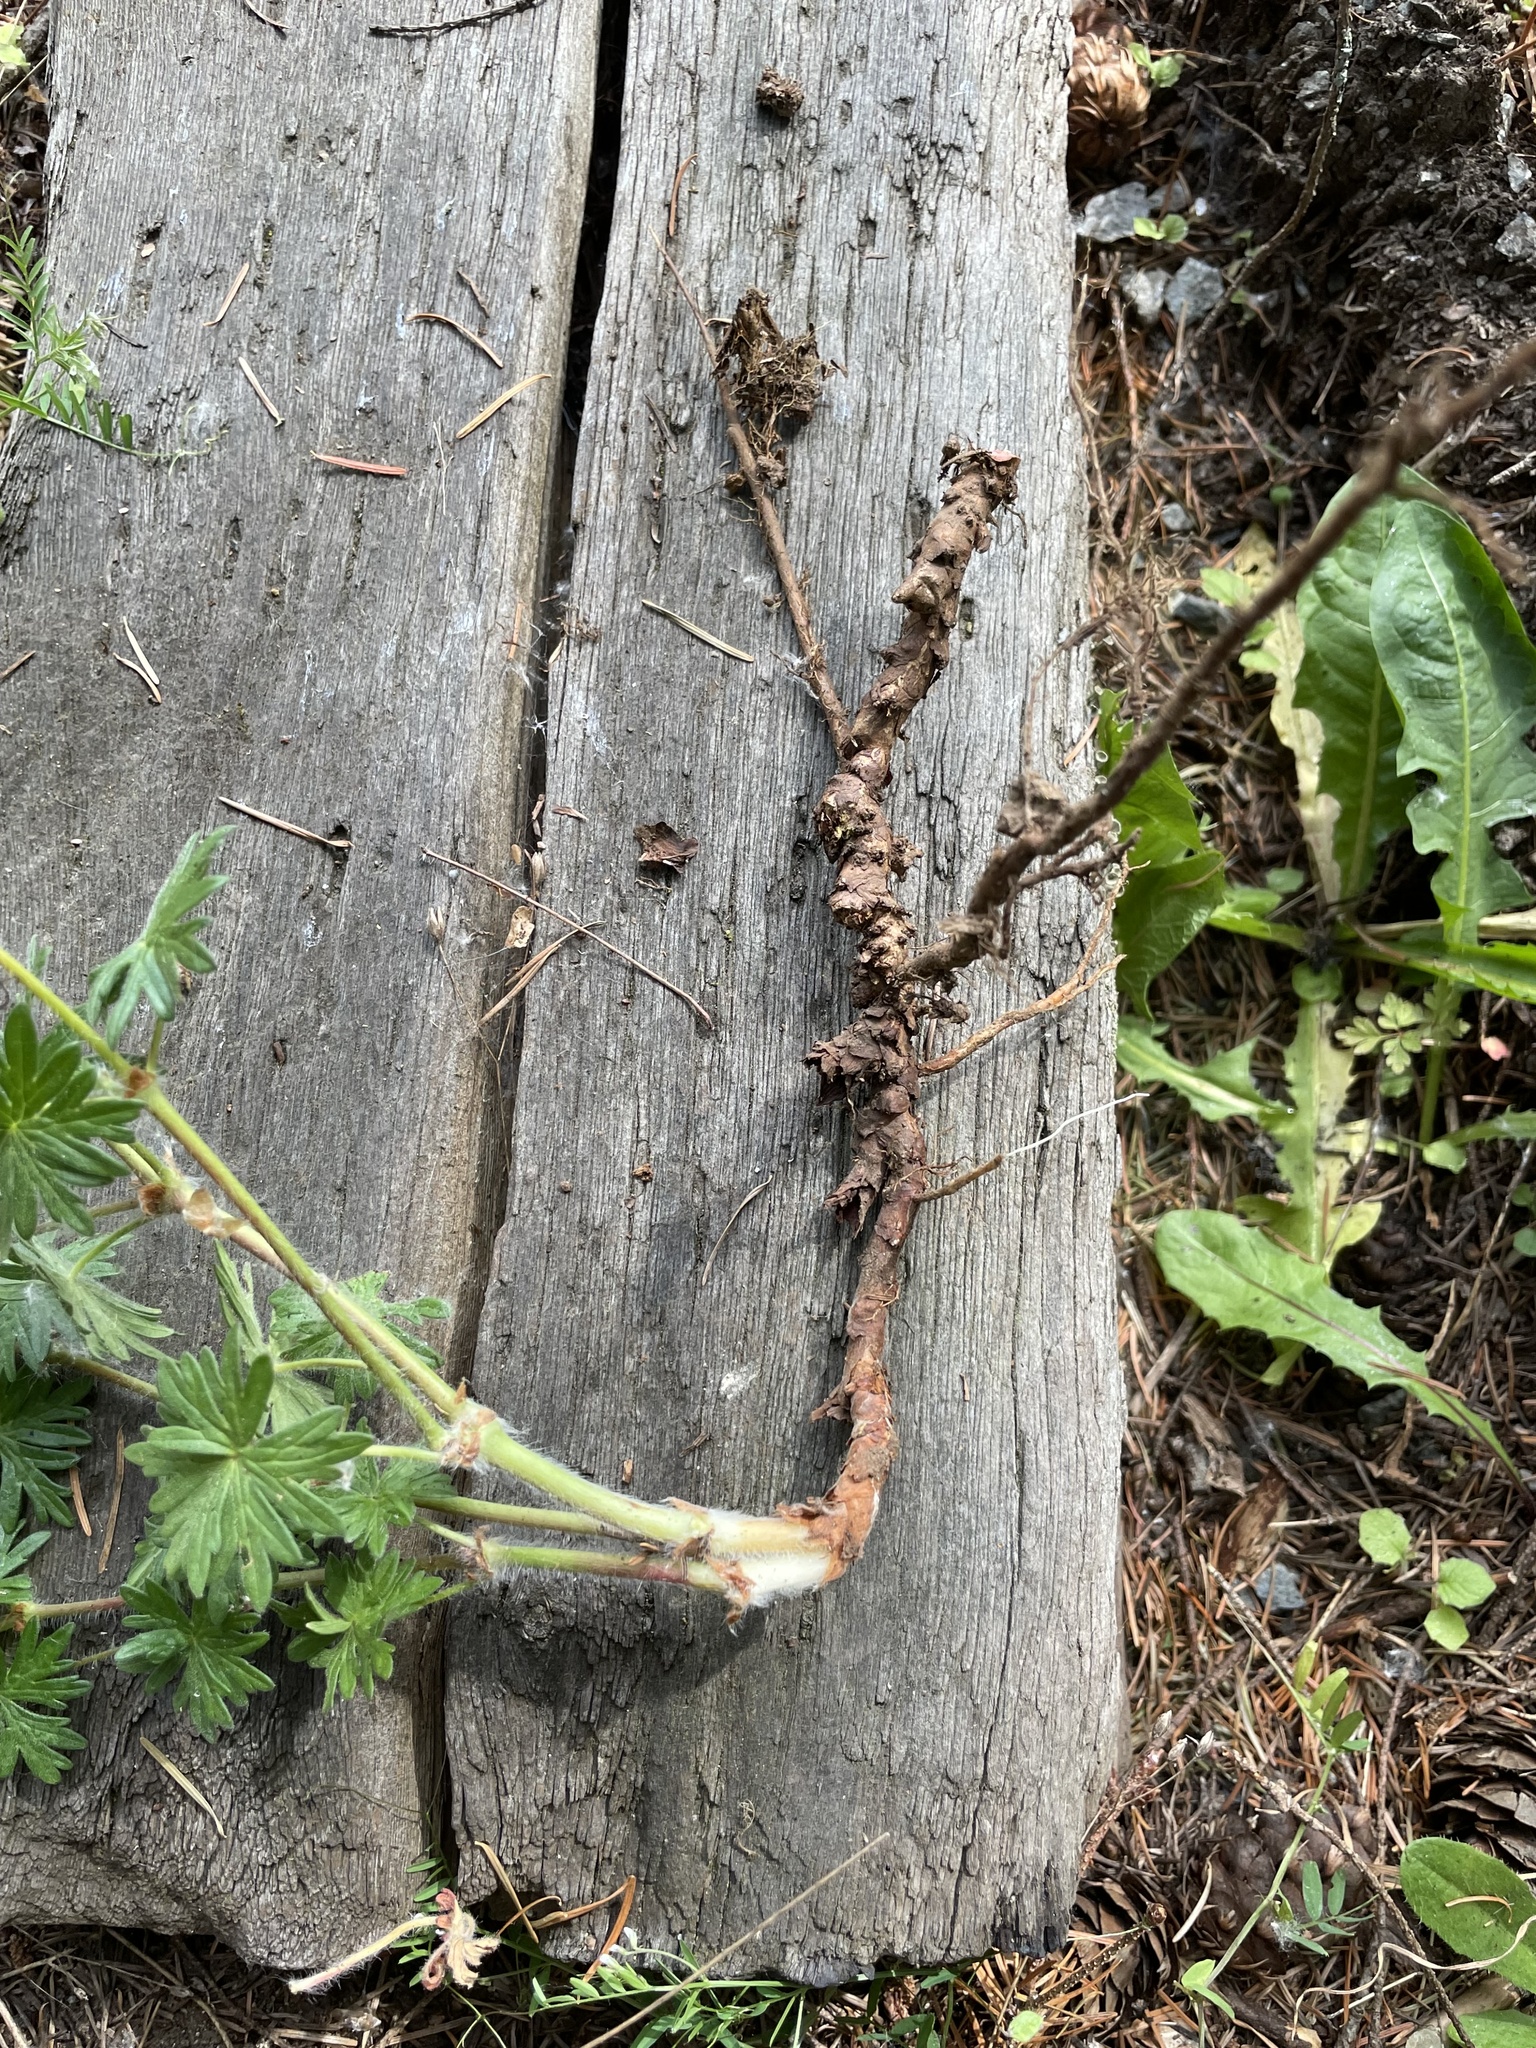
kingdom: Plantae
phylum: Tracheophyta
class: Magnoliopsida
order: Geraniales
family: Geraniaceae
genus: Geranium
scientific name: Geranium sanguineum
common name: Bloody crane's-bill
